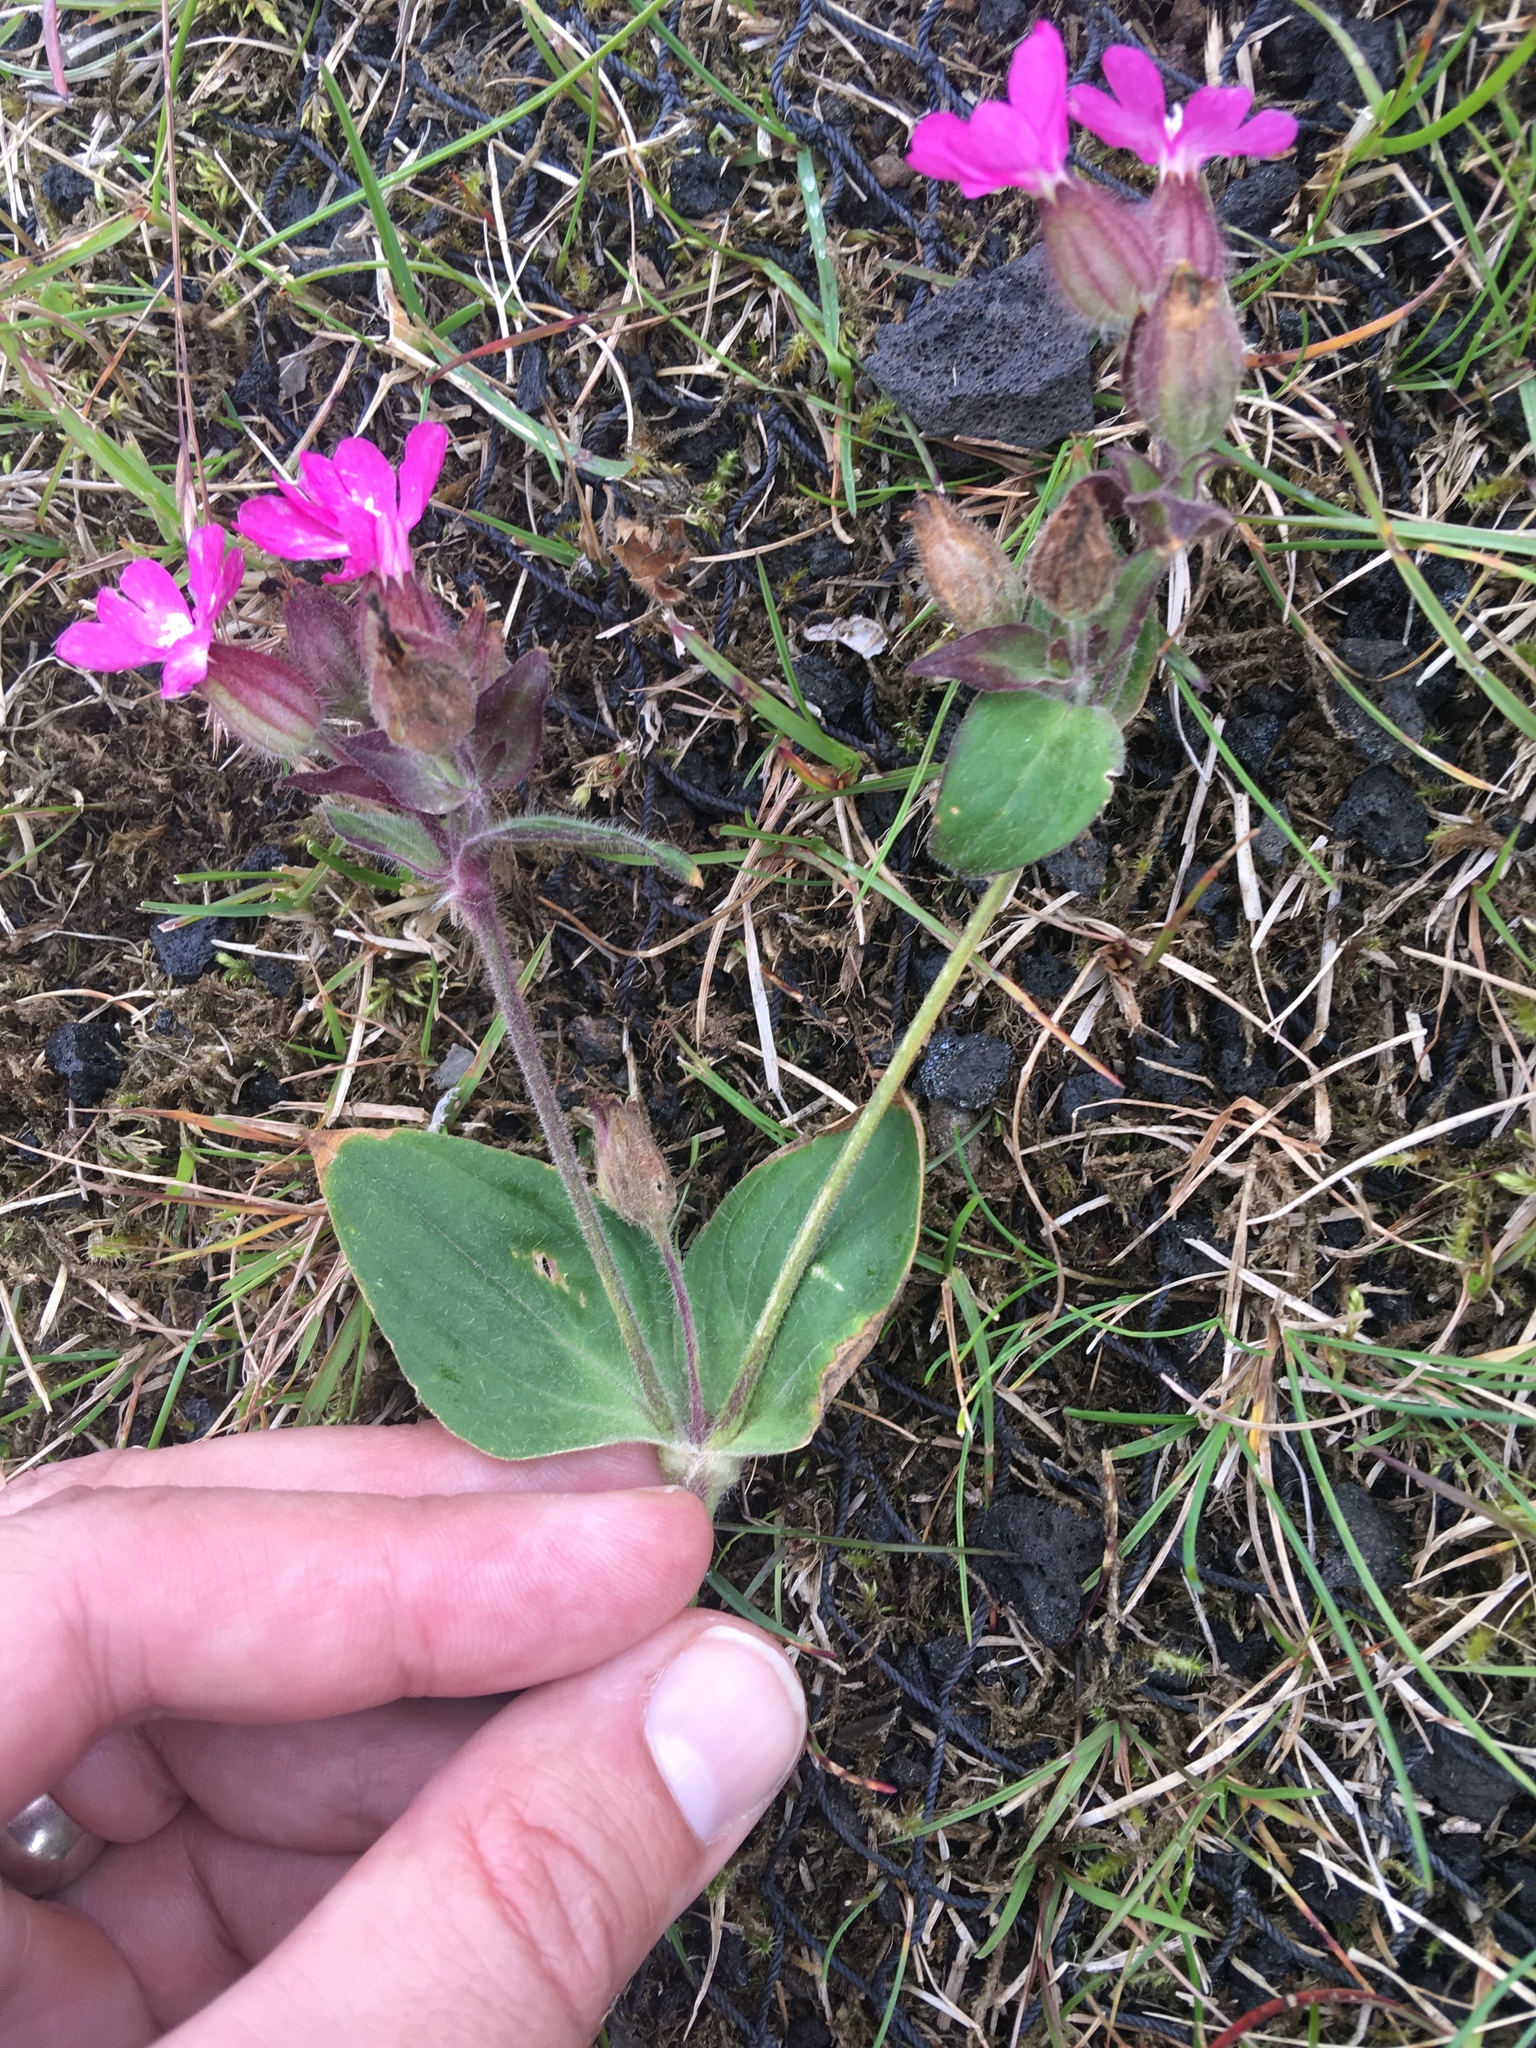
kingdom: Plantae
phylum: Tracheophyta
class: Magnoliopsida
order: Caryophyllales
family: Caryophyllaceae
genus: Silene
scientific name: Silene dioica
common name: Red campion
